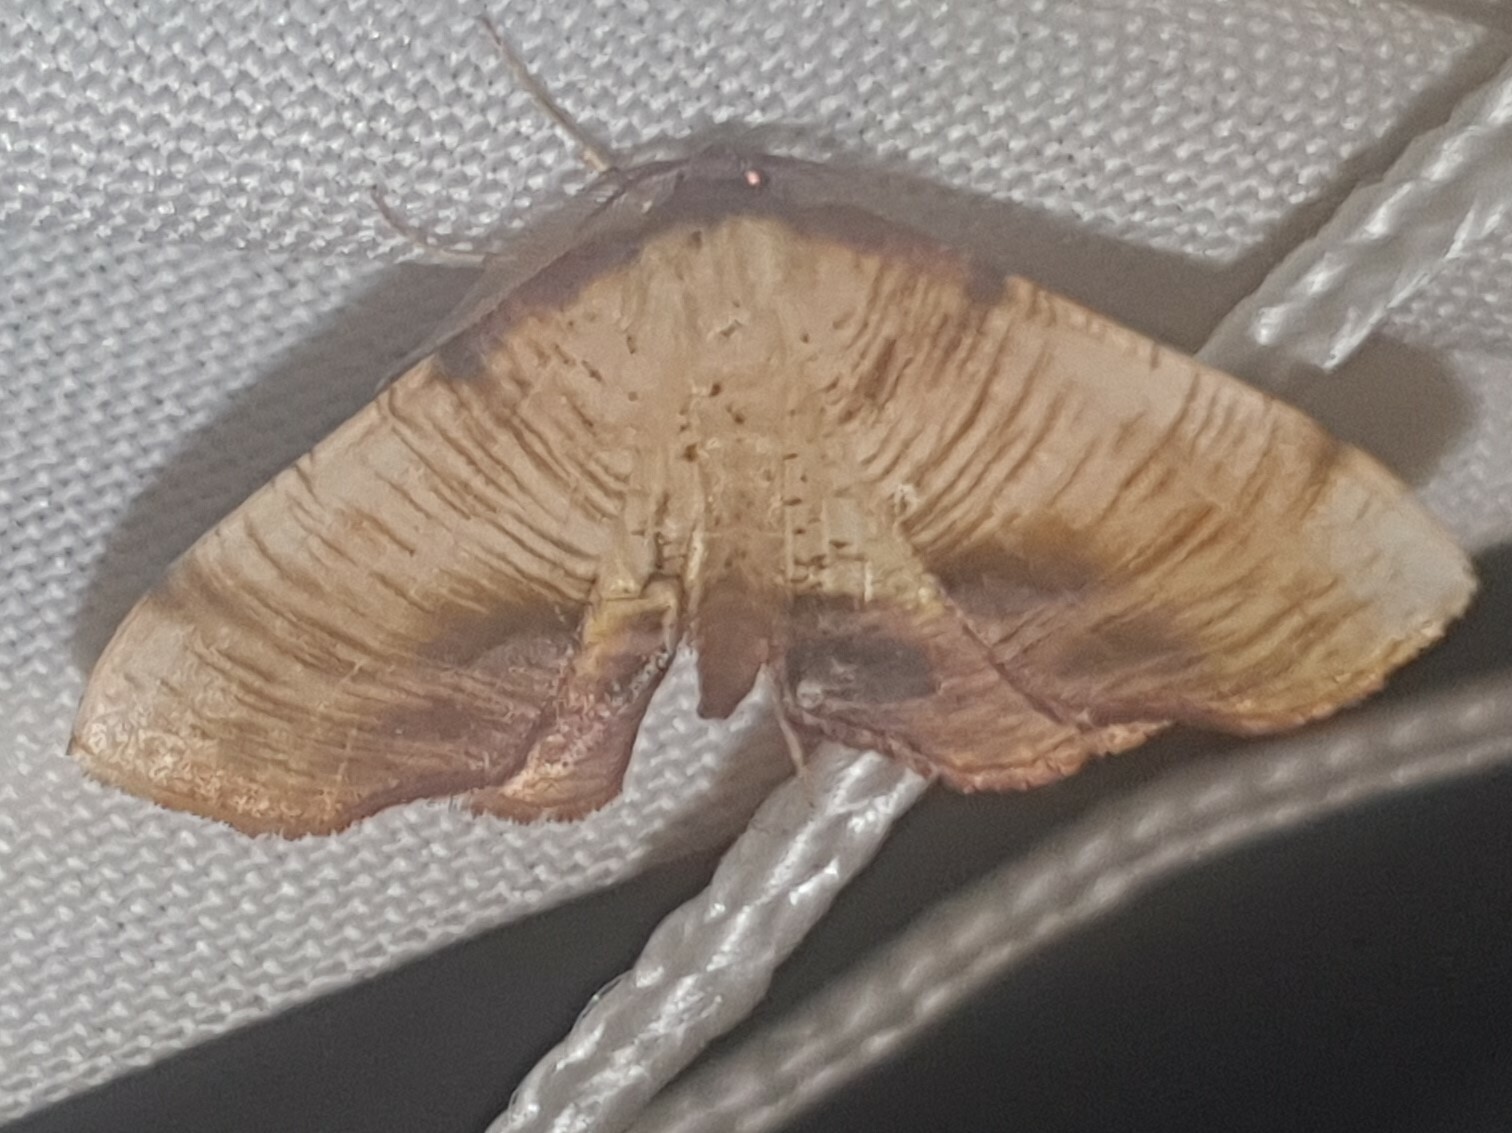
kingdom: Animalia
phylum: Arthropoda
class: Insecta
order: Lepidoptera
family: Geometridae
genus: Plagodis
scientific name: Plagodis dolabraria
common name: Scorched wing
